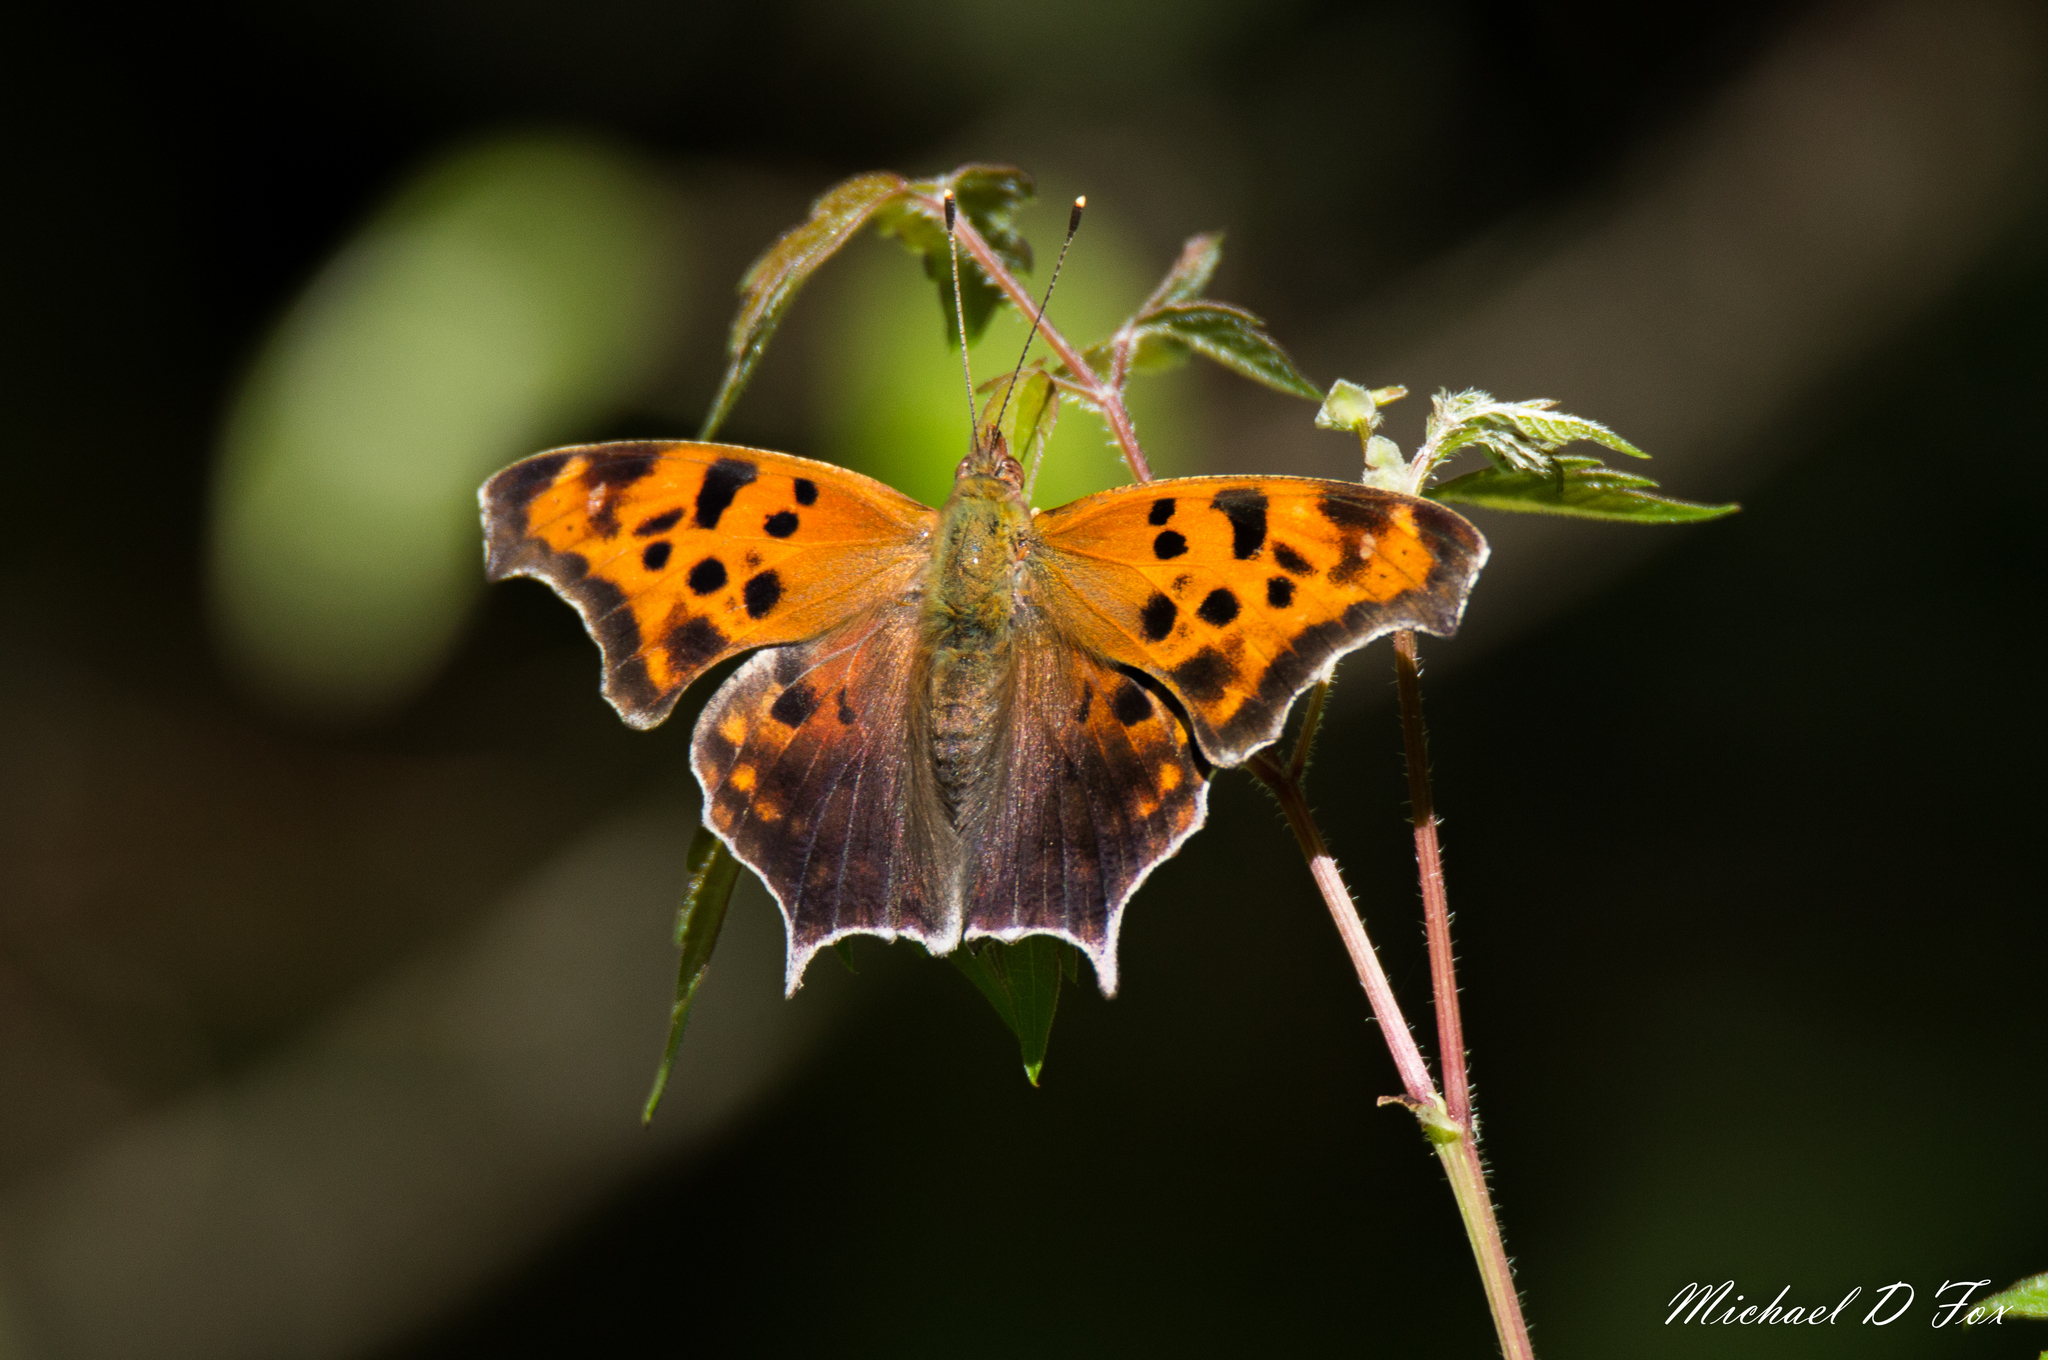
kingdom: Animalia
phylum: Arthropoda
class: Insecta
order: Lepidoptera
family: Nymphalidae
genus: Polygonia
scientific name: Polygonia interrogationis
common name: Question mark
